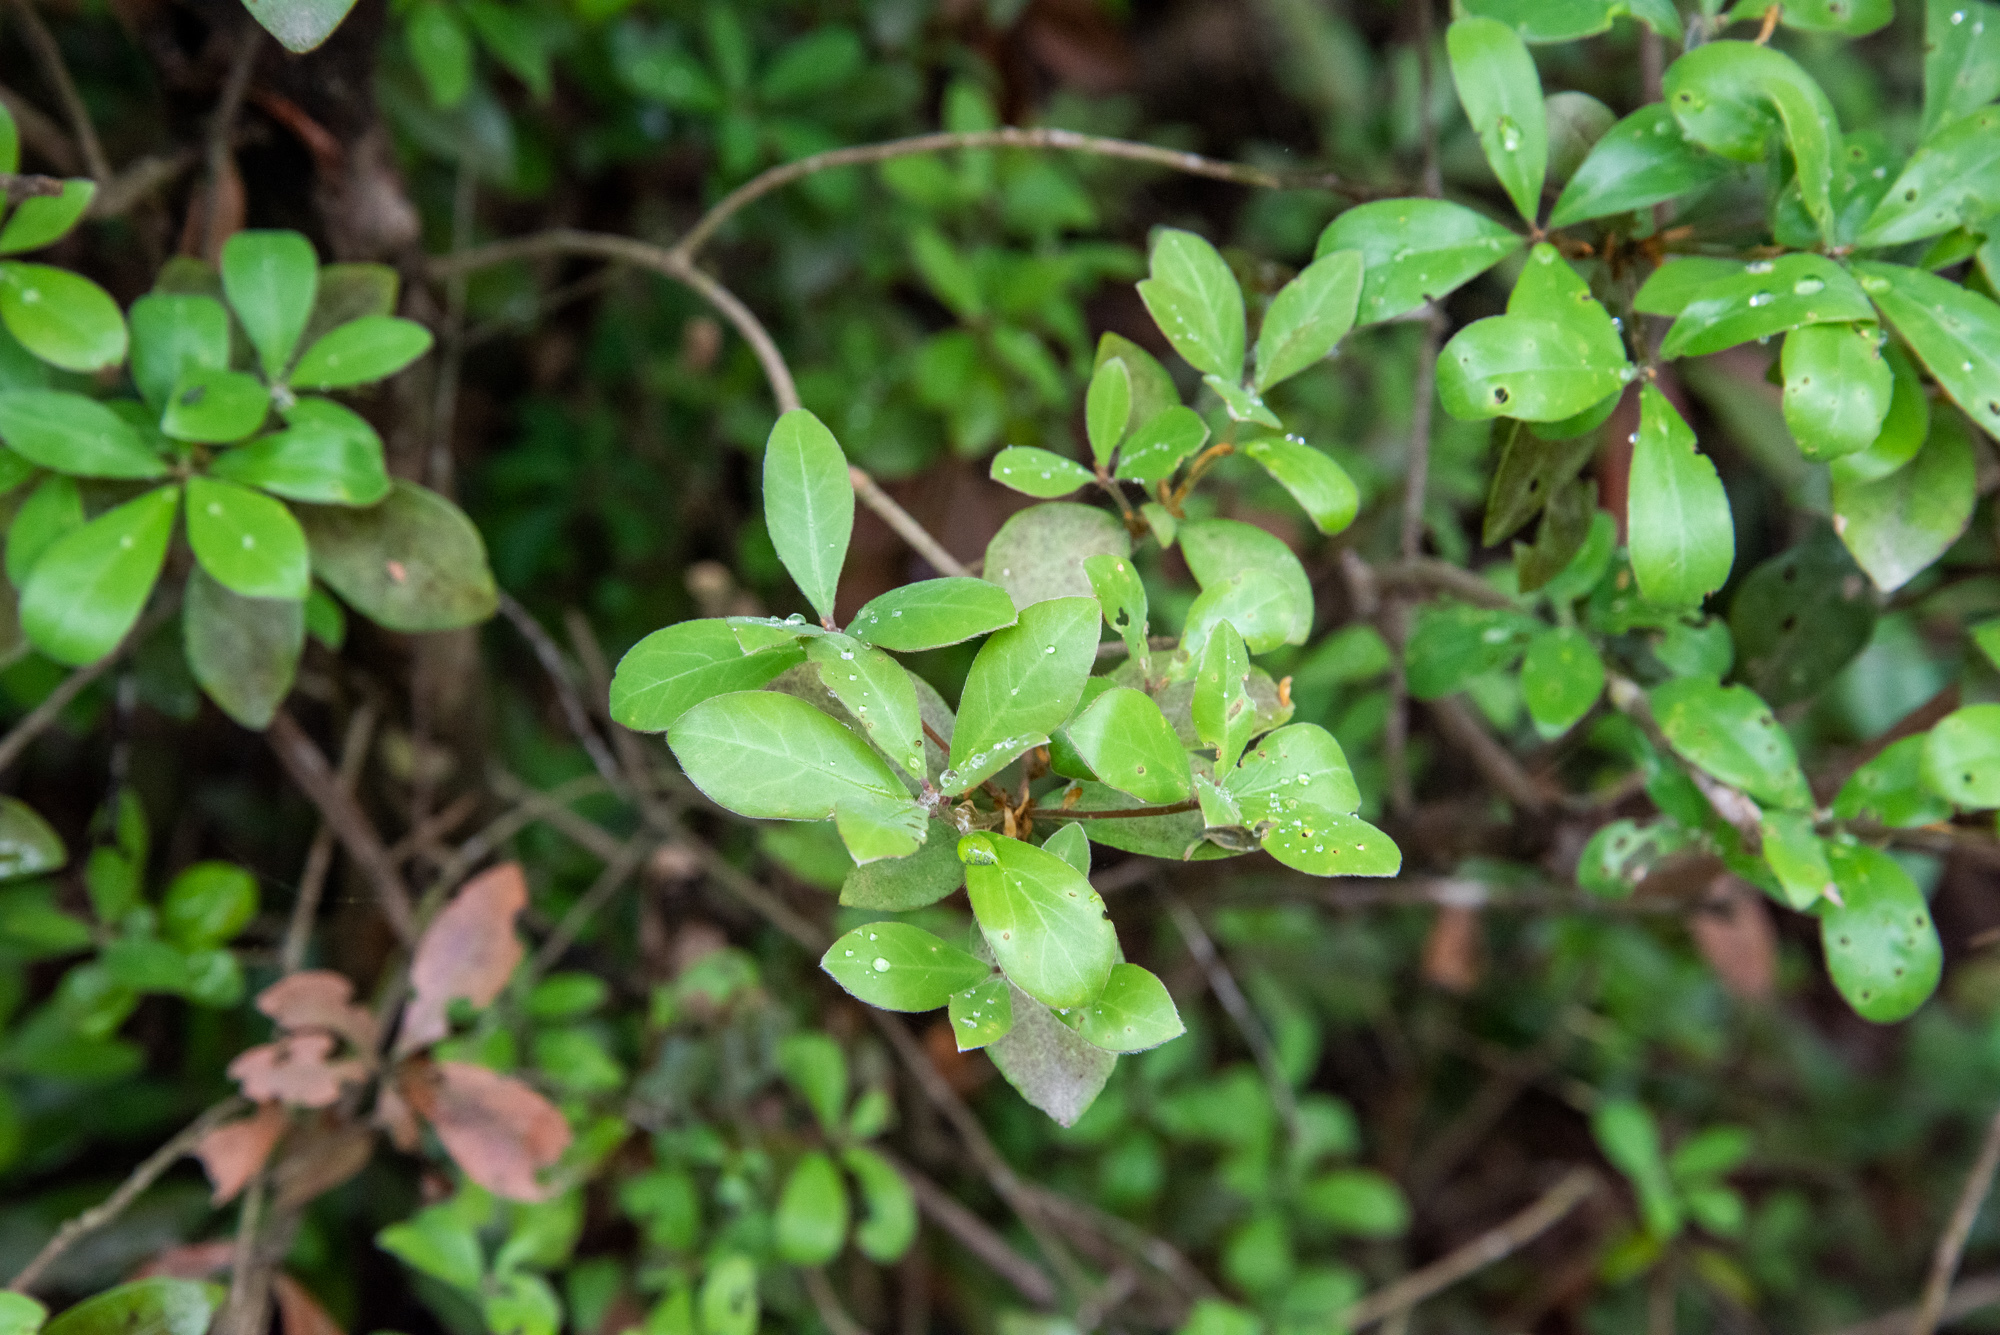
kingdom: Plantae
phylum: Tracheophyta
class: Magnoliopsida
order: Laurales
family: Lauraceae
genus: Litsea
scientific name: Litsea rotundifolia
